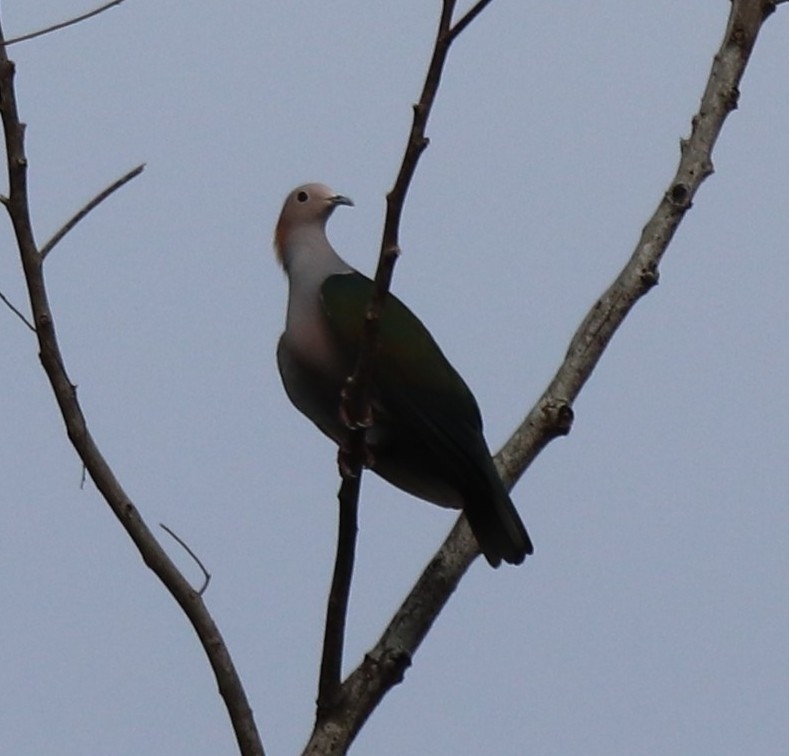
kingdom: Animalia
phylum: Chordata
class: Aves
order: Columbiformes
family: Columbidae
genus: Ducula
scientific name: Ducula aenea
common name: Green imperial pigeon
